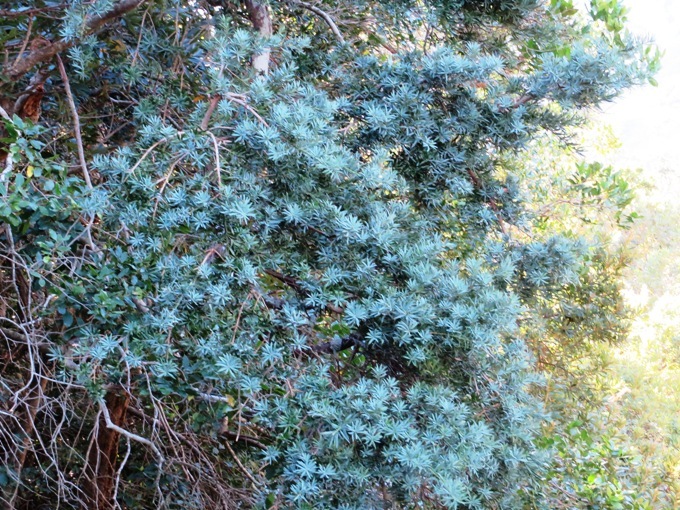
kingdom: Plantae
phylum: Tracheophyta
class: Pinopsida
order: Pinales
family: Podocarpaceae
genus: Podocarpus
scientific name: Podocarpus elongatus
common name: Breede river yellowwood
